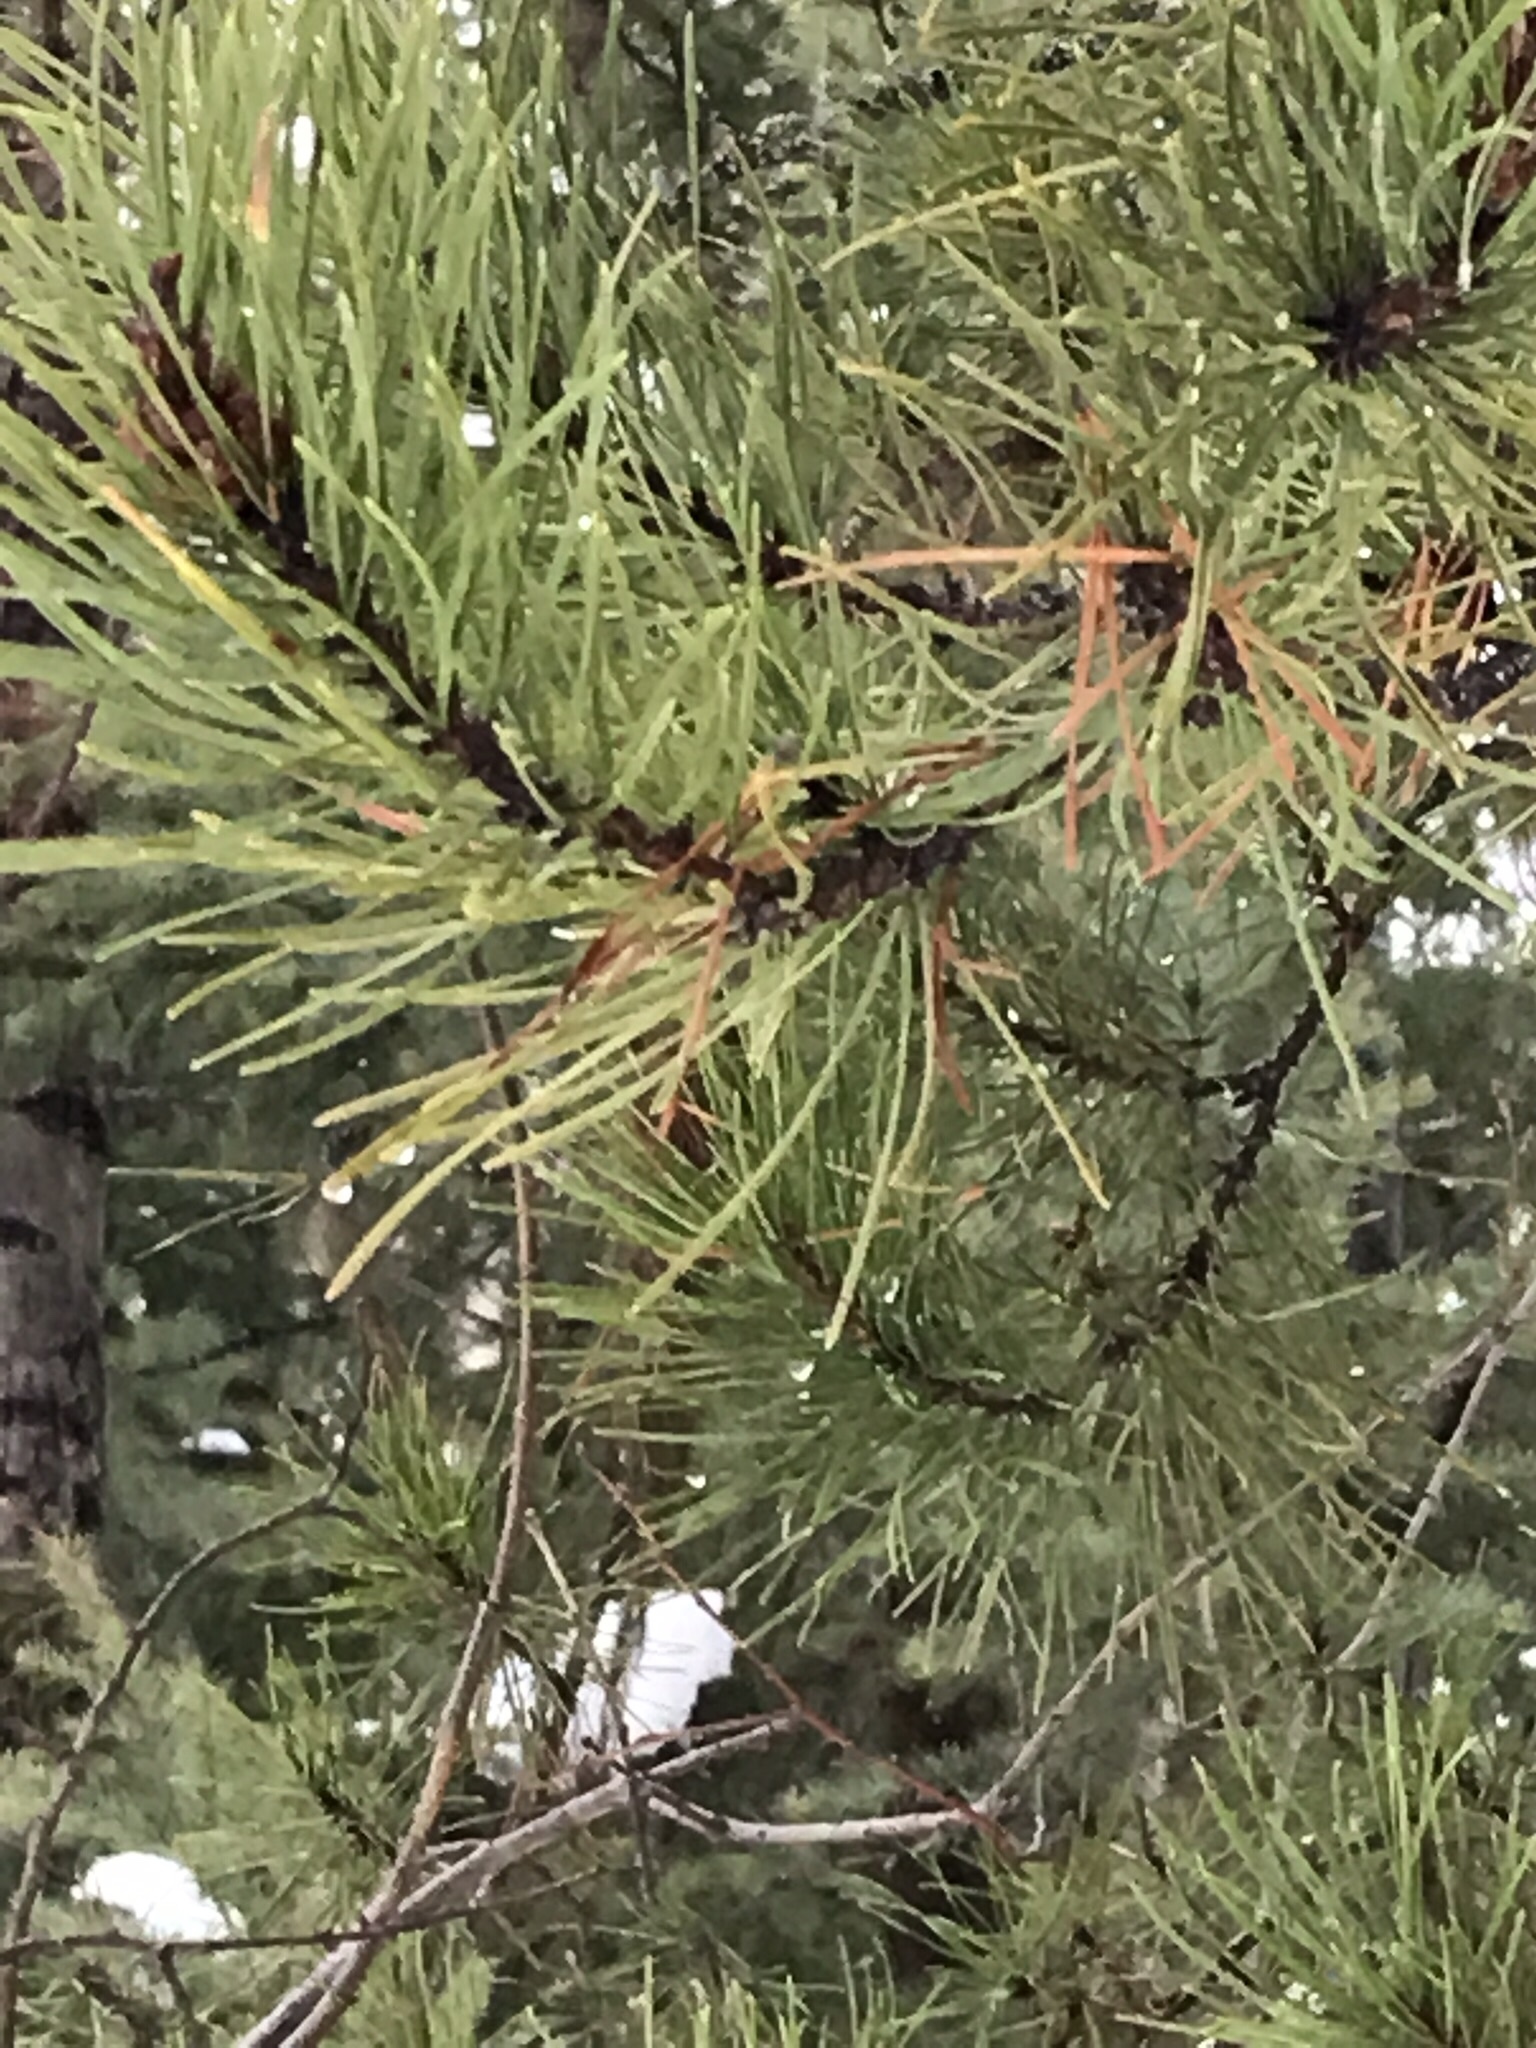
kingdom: Plantae
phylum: Tracheophyta
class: Pinopsida
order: Pinales
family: Pinaceae
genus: Pinus
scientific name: Pinus contorta
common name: Lodgepole pine
